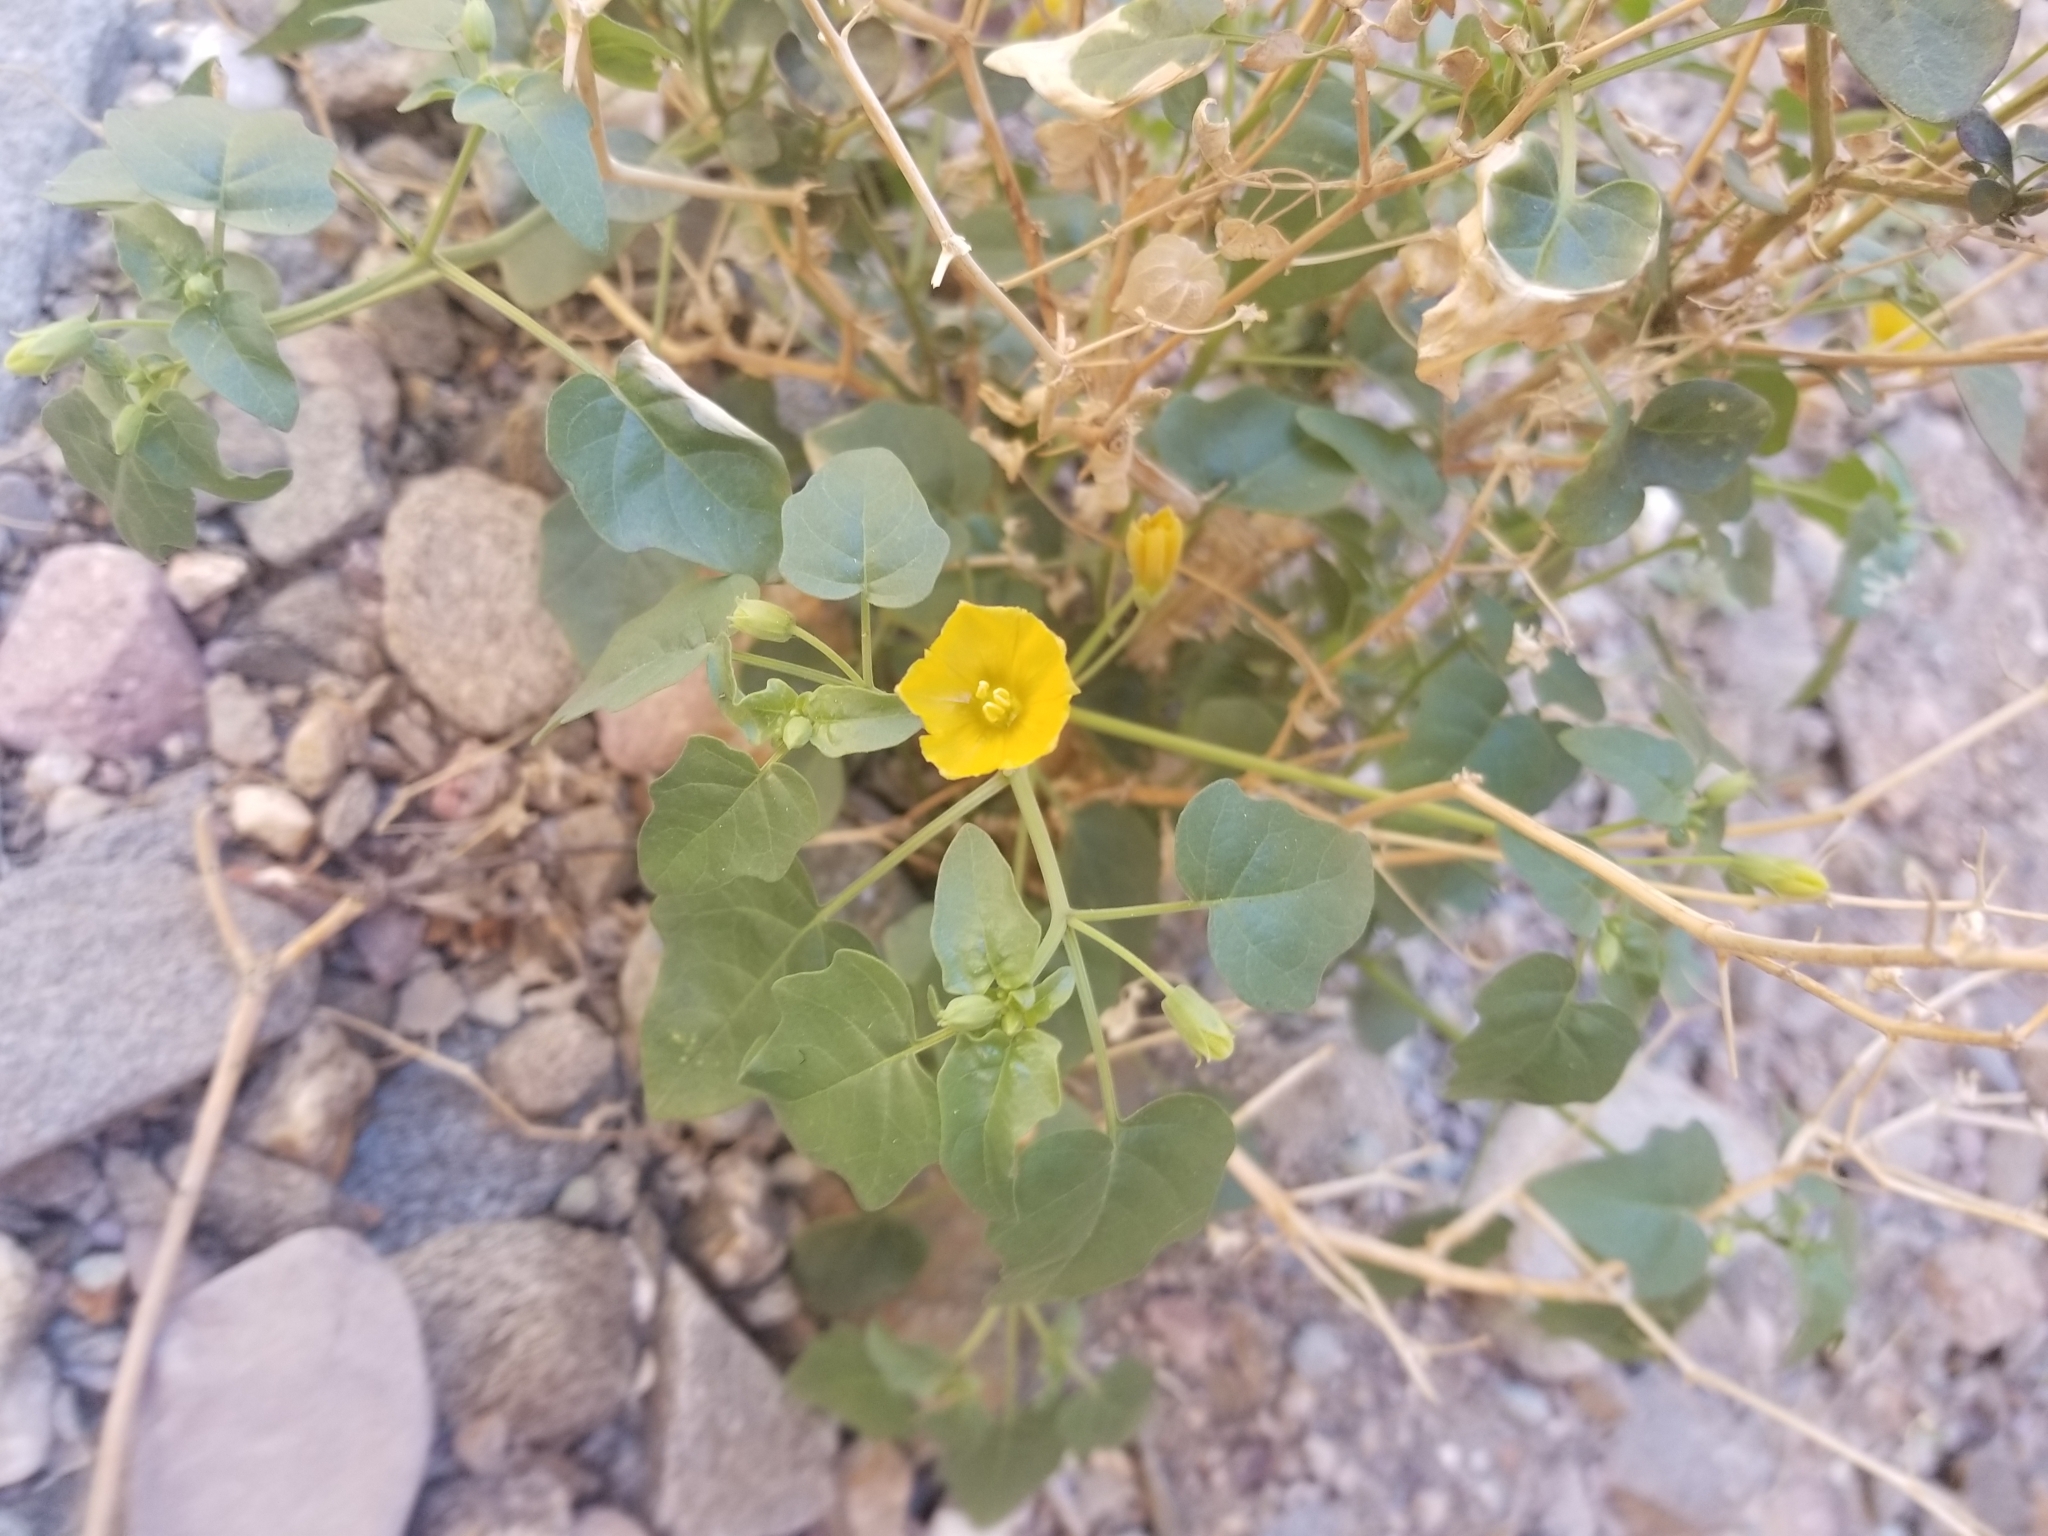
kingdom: Plantae
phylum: Tracheophyta
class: Magnoliopsida
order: Solanales
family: Solanaceae
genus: Physalis
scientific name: Physalis crassifolia
